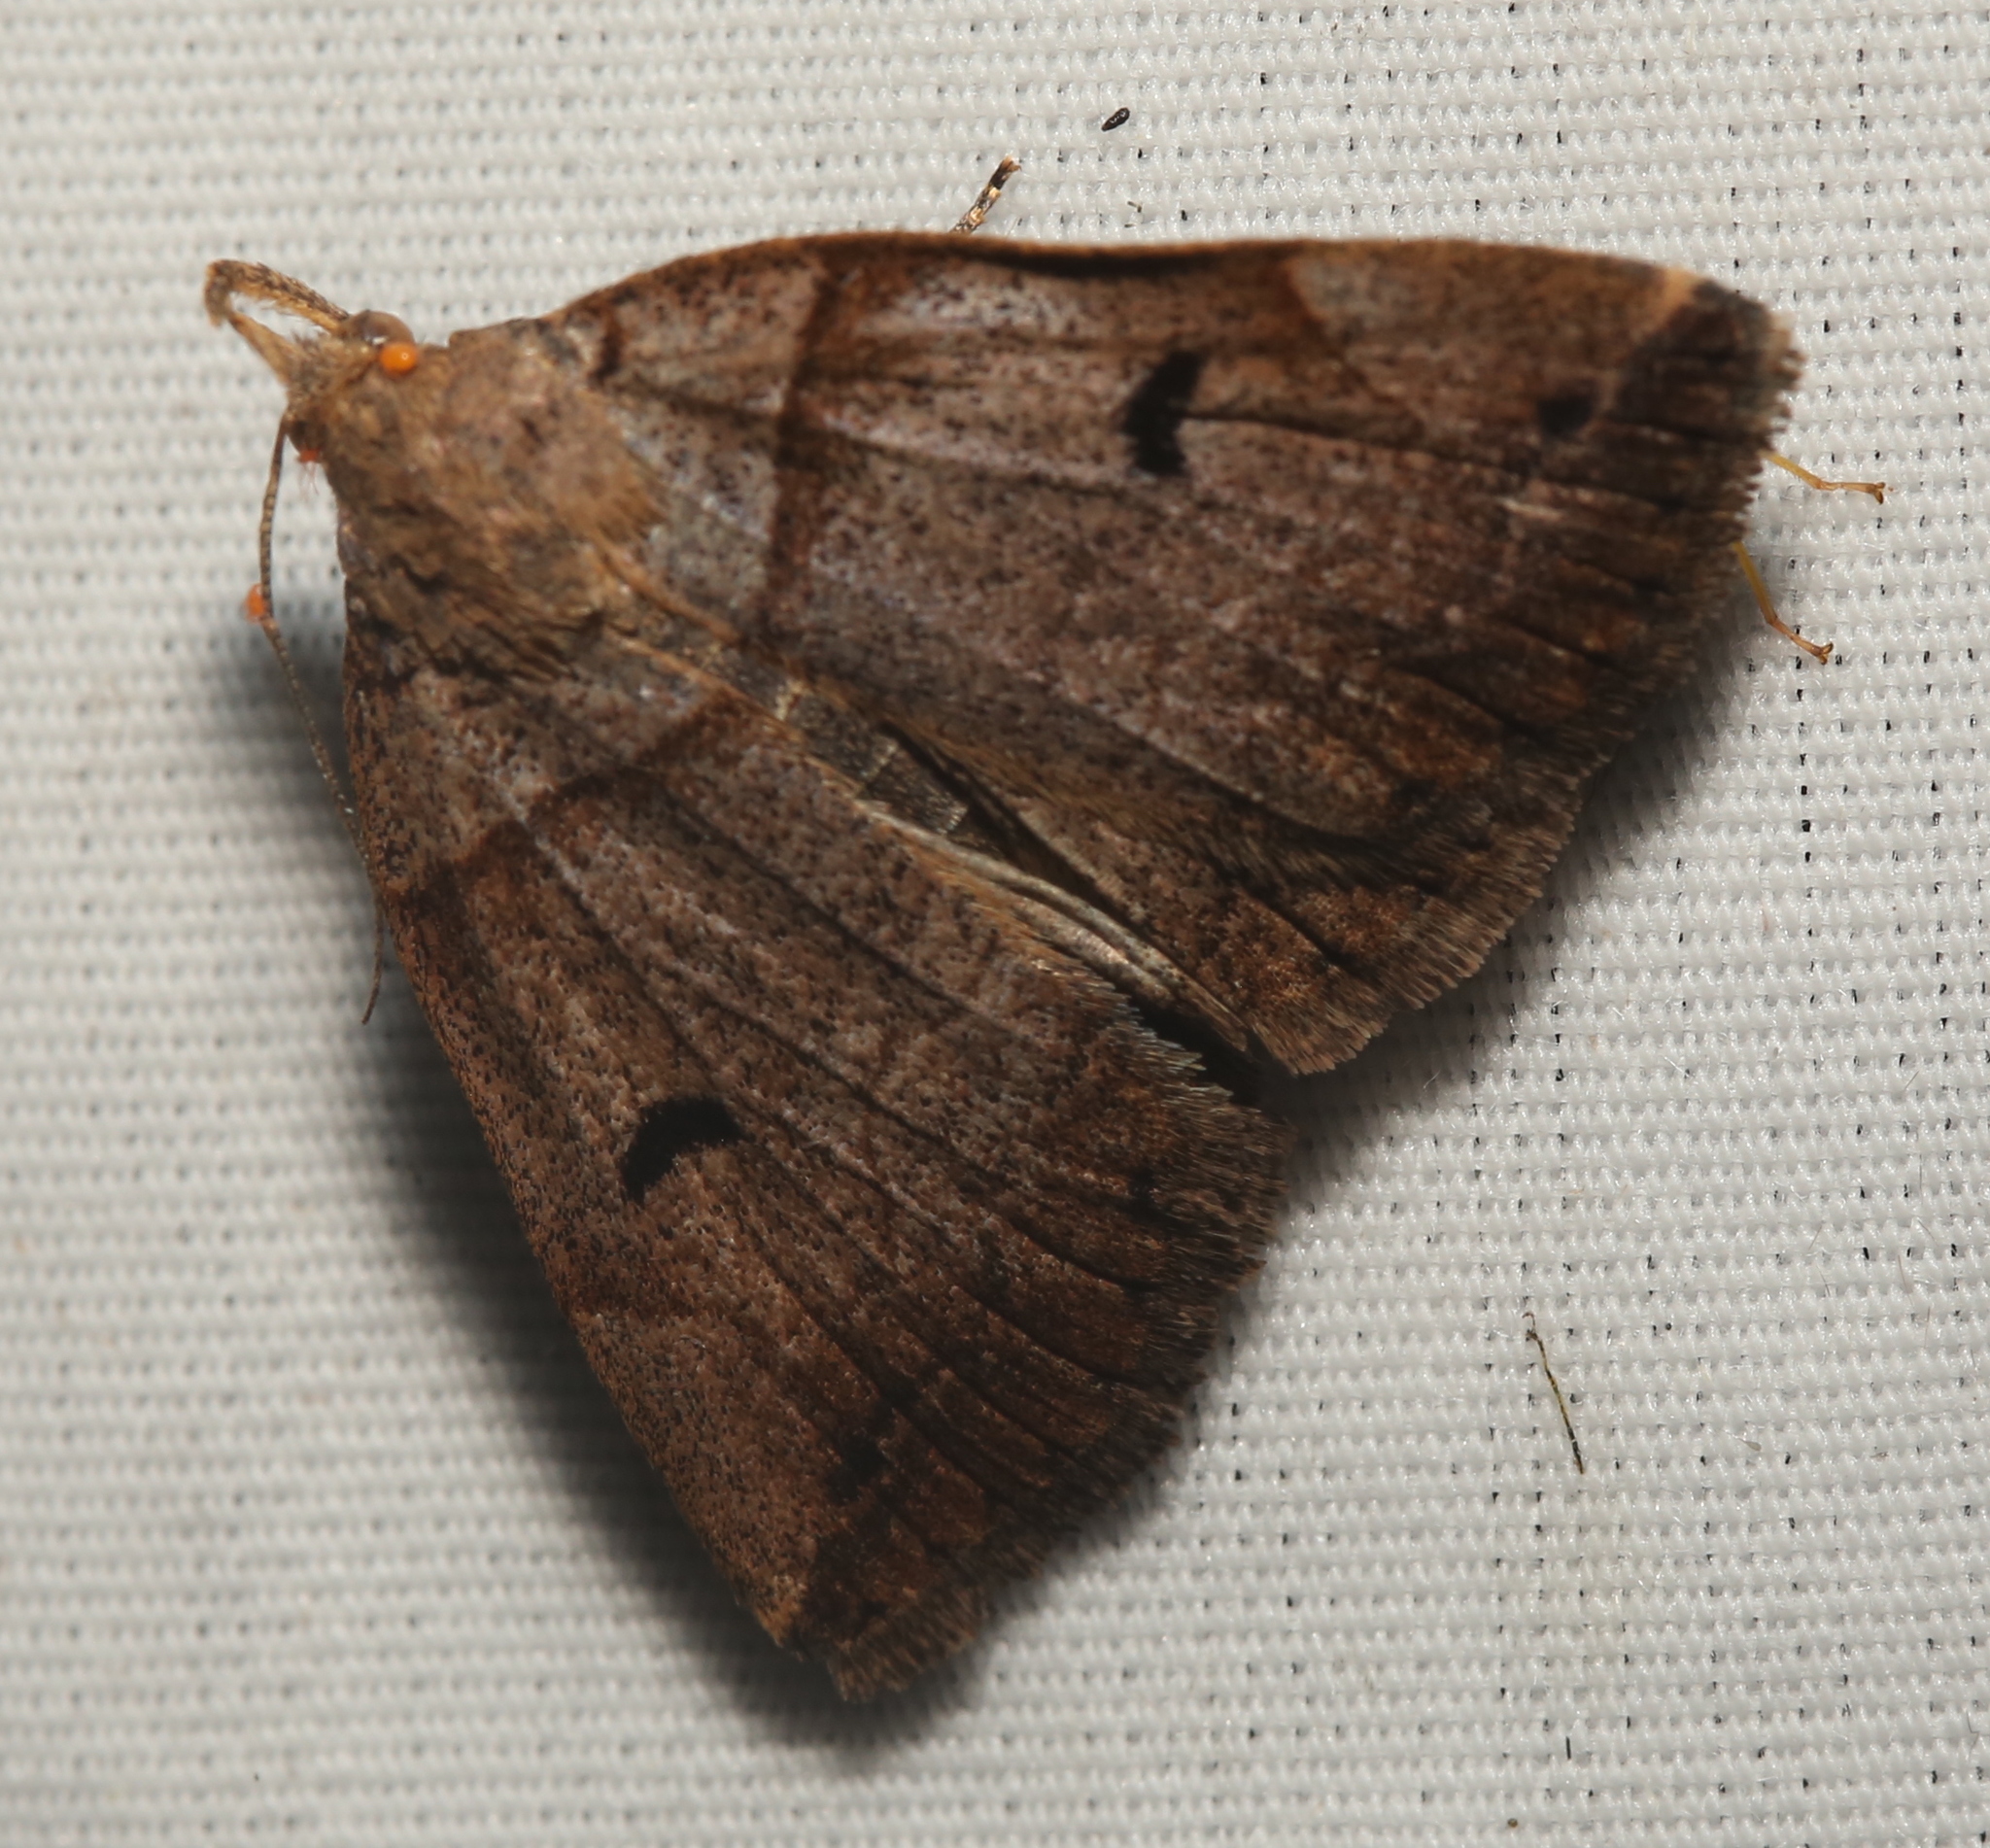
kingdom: Animalia
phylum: Arthropoda
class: Insecta
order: Lepidoptera
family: Erebidae
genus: Zanclognatha
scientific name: Zanclognatha laevigata
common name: Variable fan-foot
